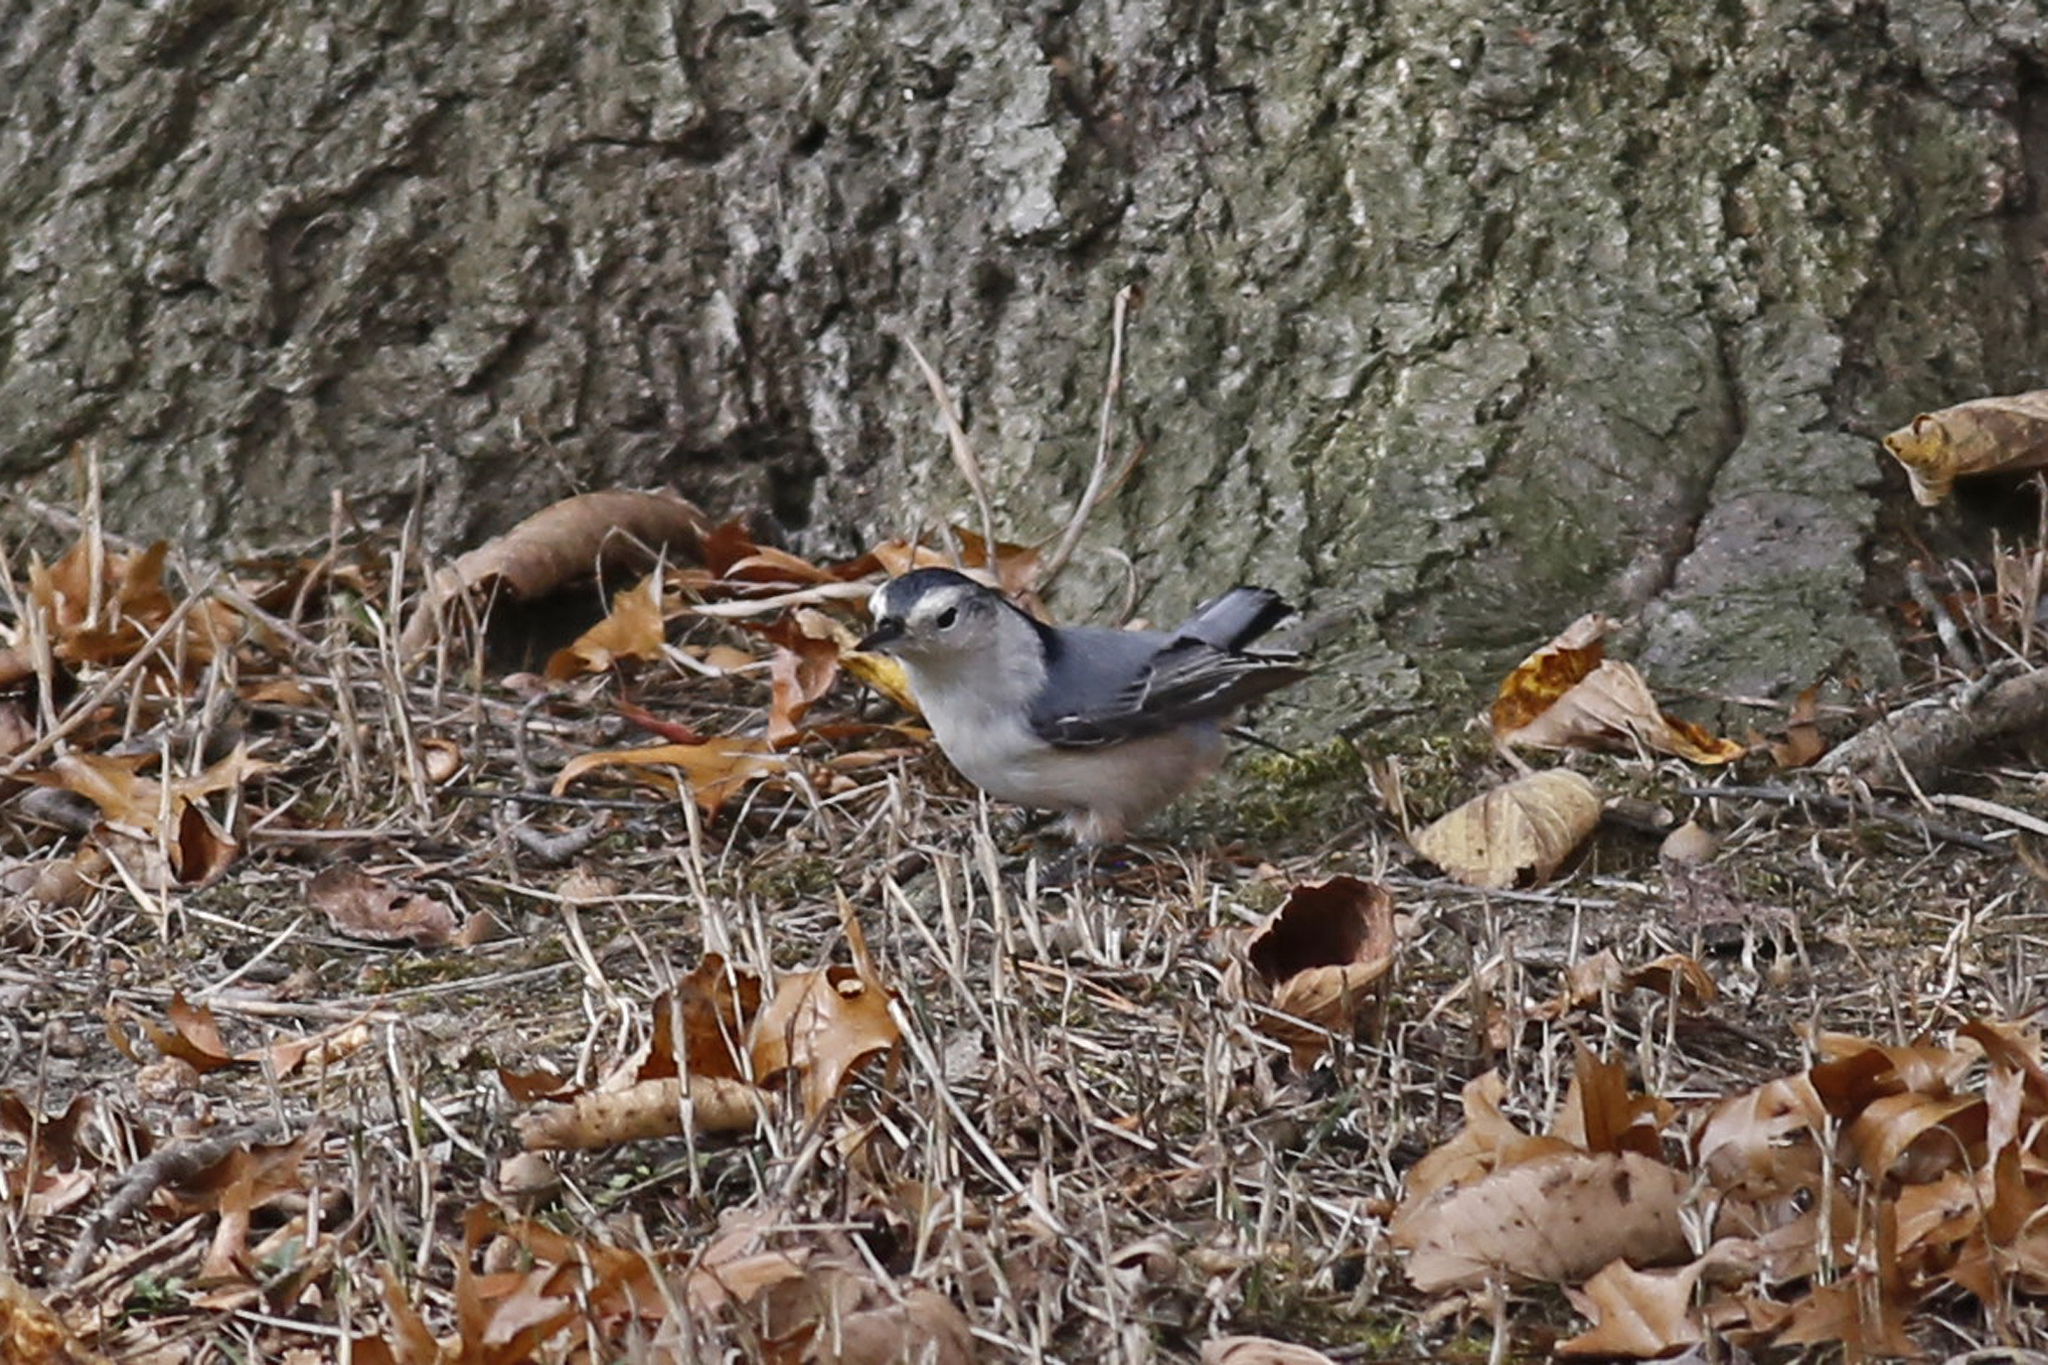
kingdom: Animalia
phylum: Chordata
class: Aves
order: Passeriformes
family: Sittidae
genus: Sitta
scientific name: Sitta carolinensis
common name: White-breasted nuthatch
